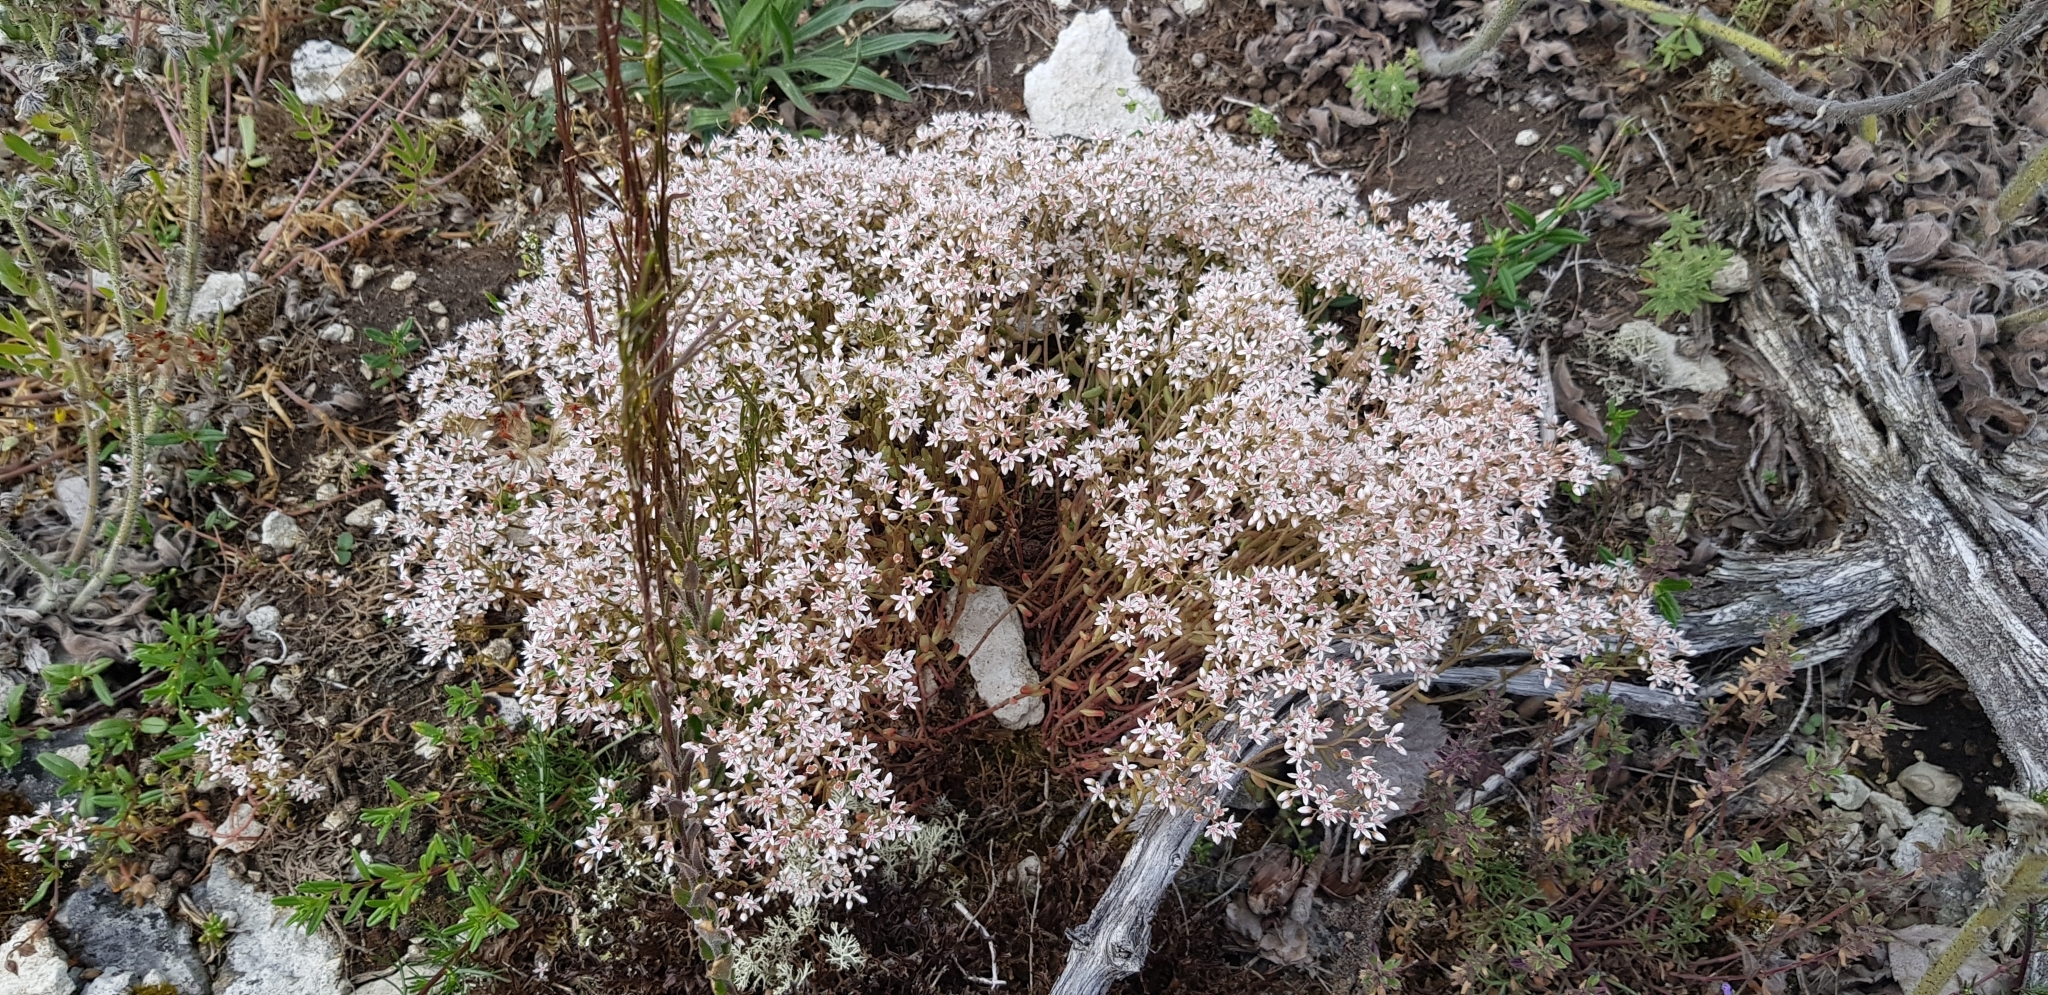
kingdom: Plantae
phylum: Tracheophyta
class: Magnoliopsida
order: Saxifragales
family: Crassulaceae
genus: Sedum
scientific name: Sedum album
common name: White stonecrop
